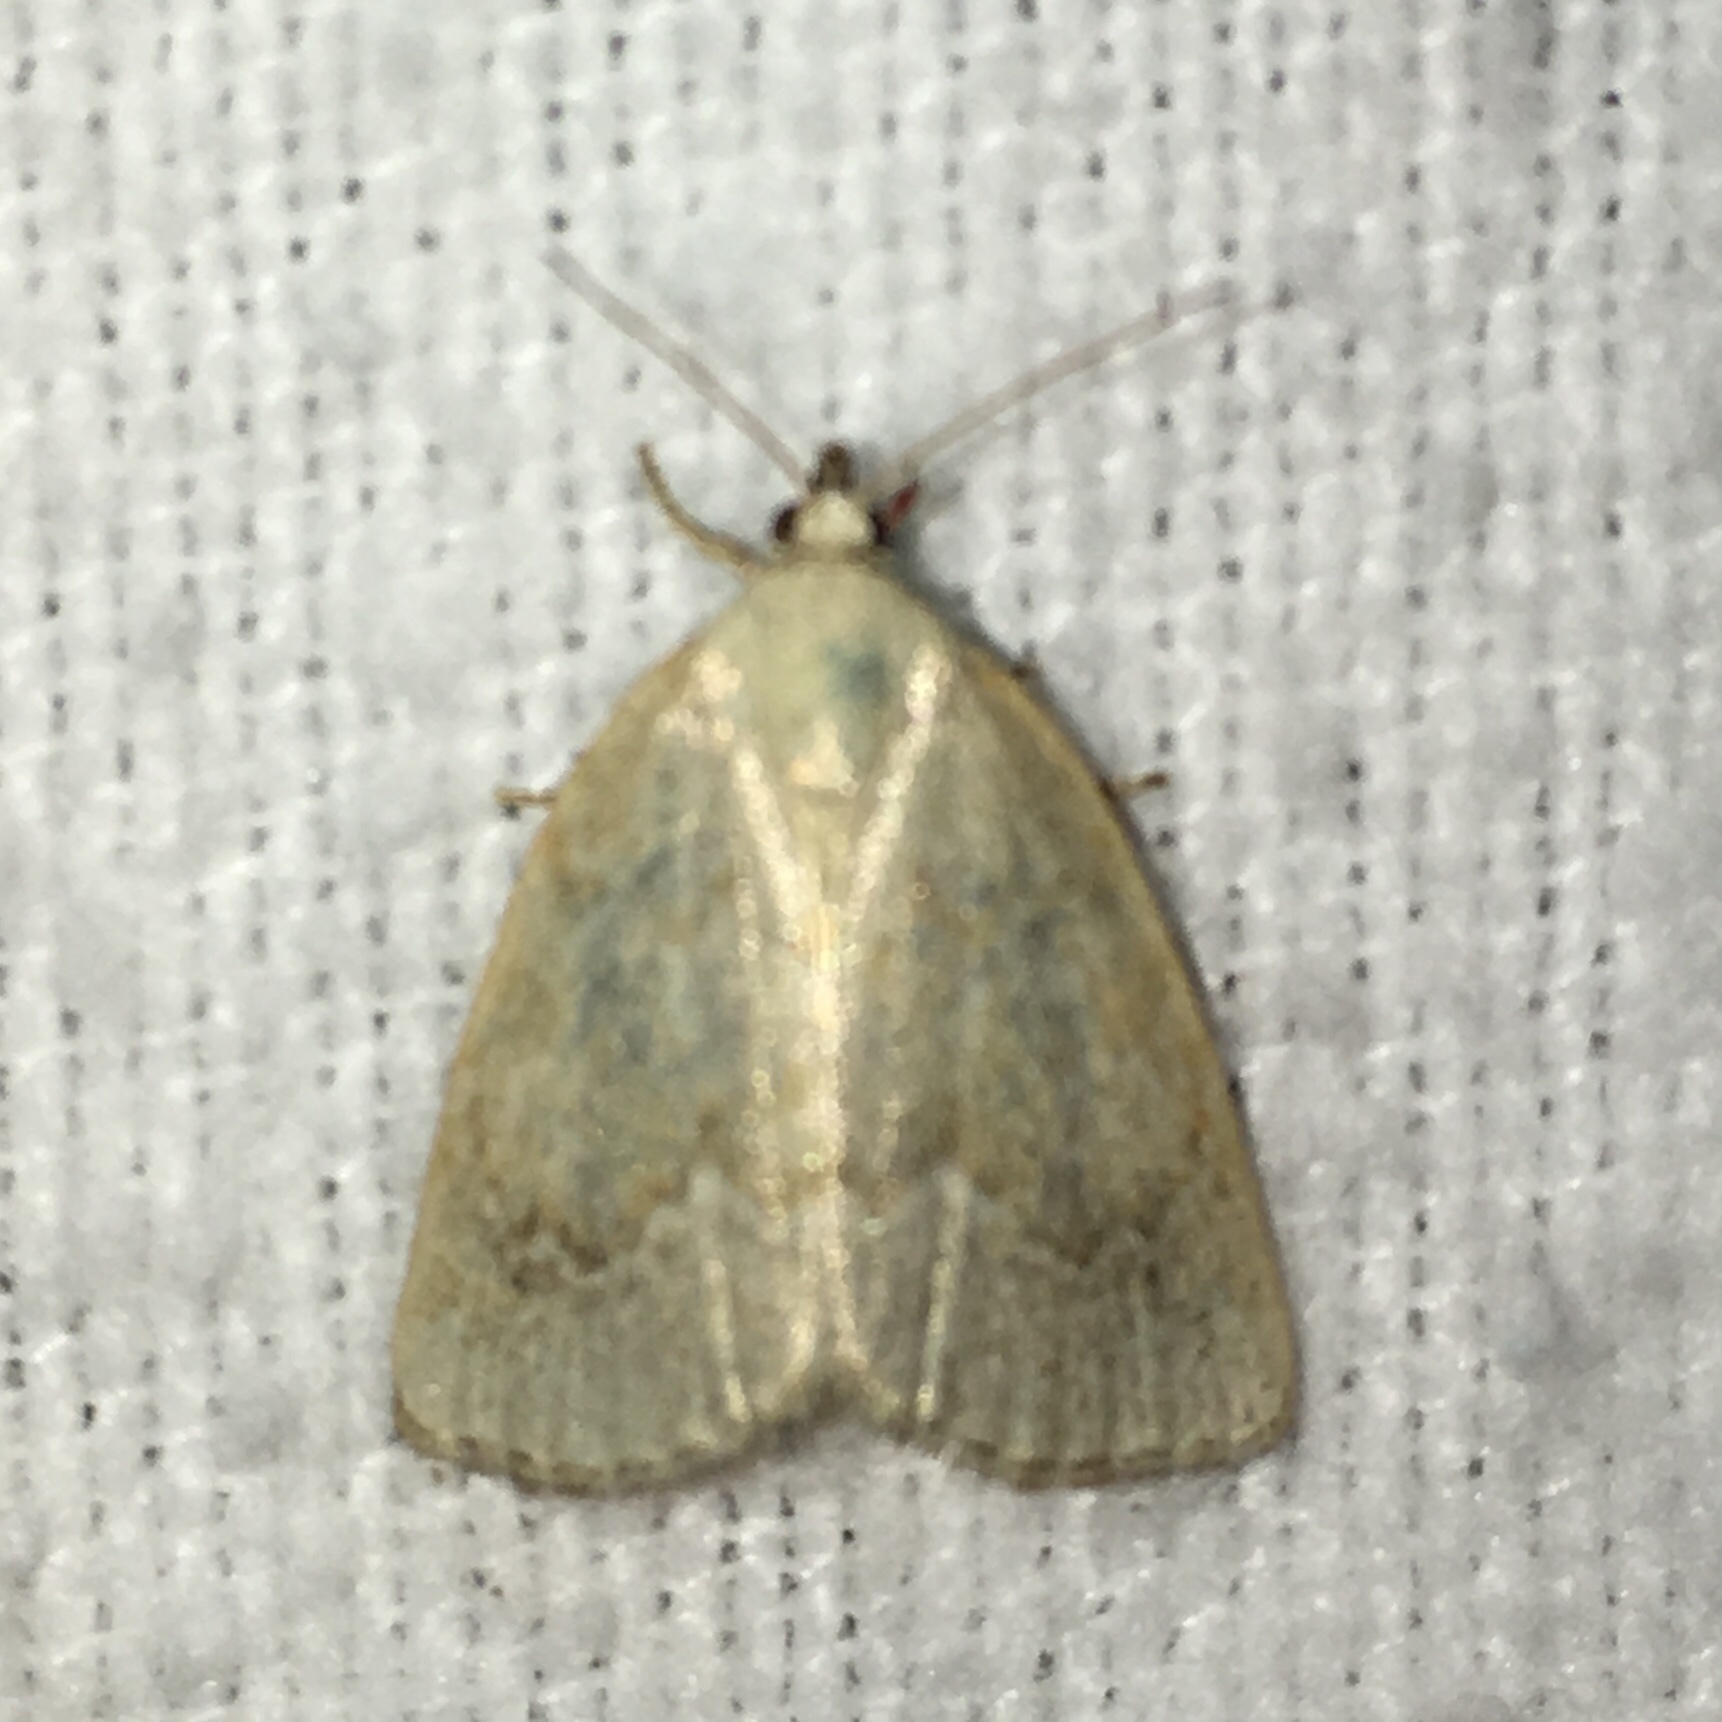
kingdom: Animalia
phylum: Arthropoda
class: Insecta
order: Lepidoptera
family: Noctuidae
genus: Protodeltote
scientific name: Protodeltote albidula
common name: Pale glyph
